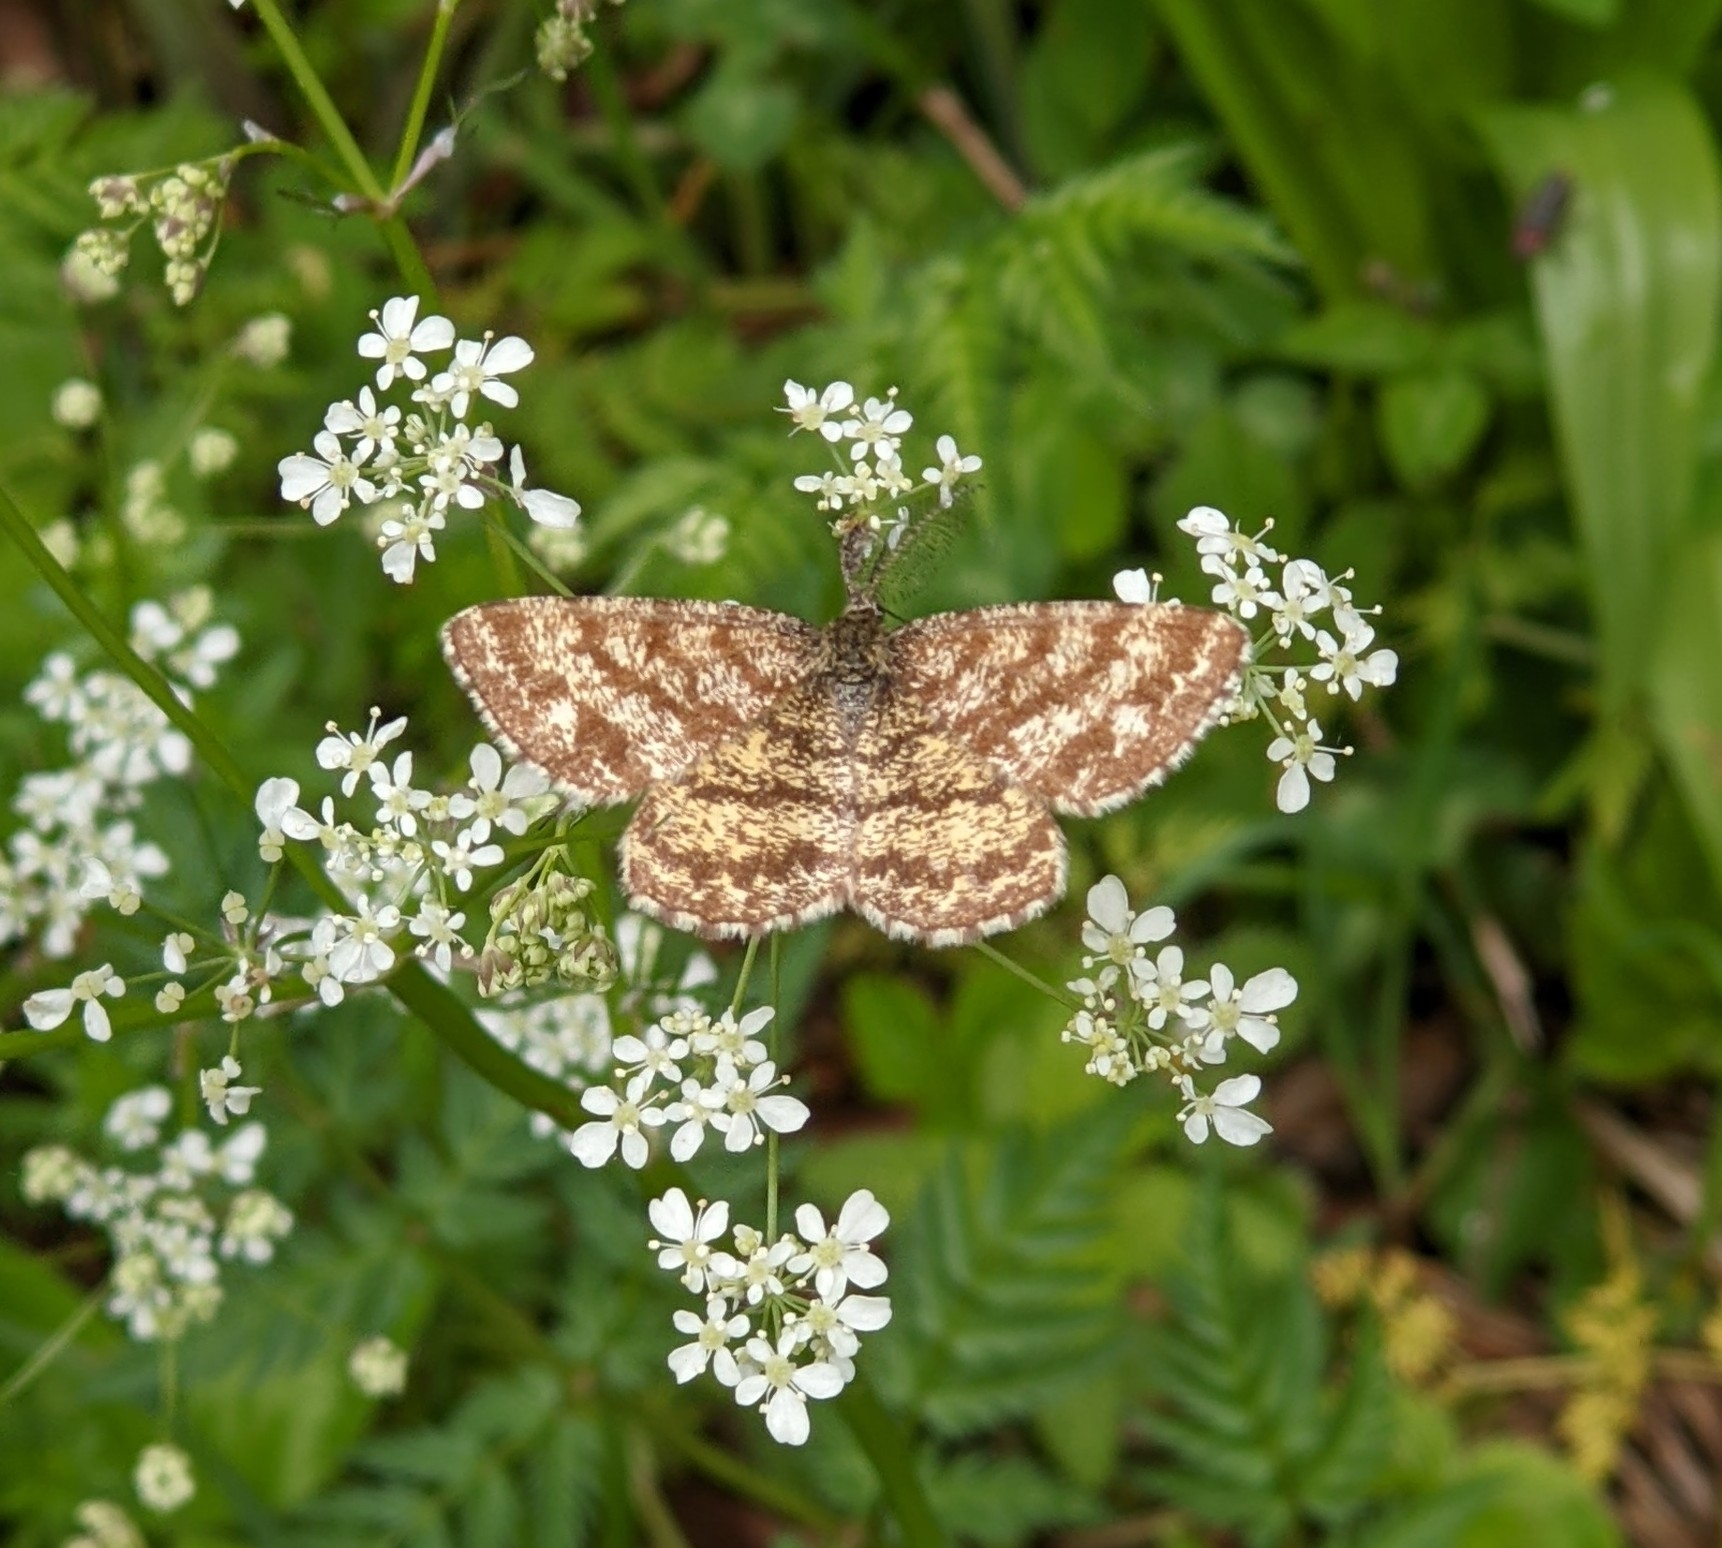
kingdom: Animalia
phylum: Arthropoda
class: Insecta
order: Lepidoptera
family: Geometridae
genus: Ematurga
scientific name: Ematurga atomaria
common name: Common heath
